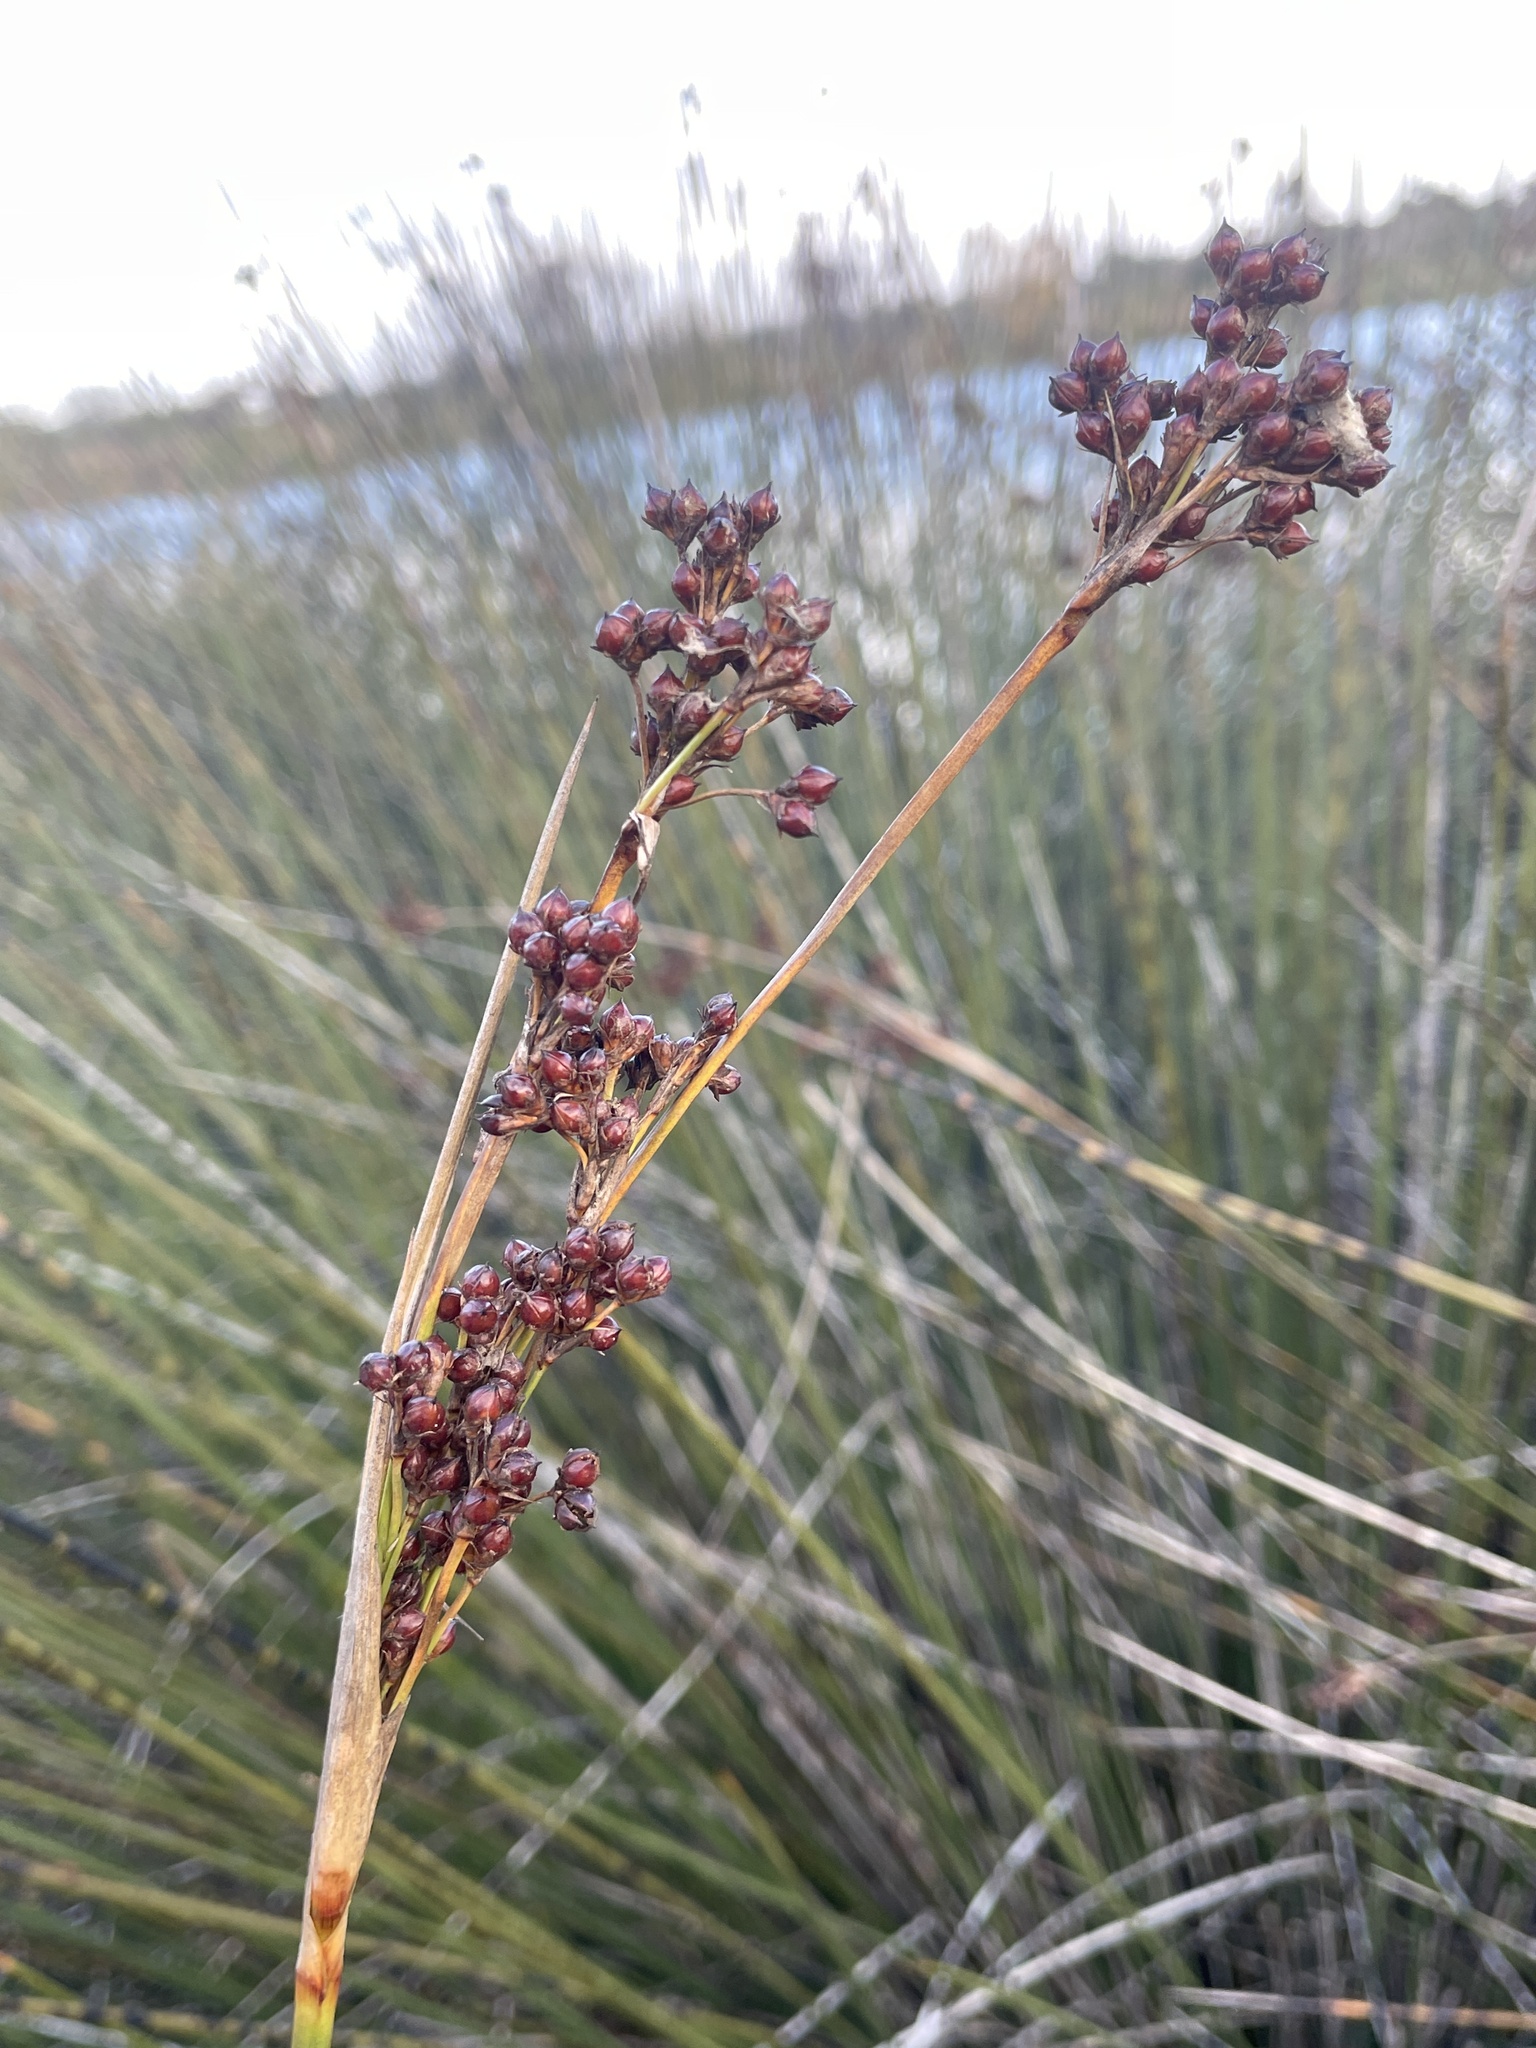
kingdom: Plantae
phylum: Tracheophyta
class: Liliopsida
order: Poales
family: Juncaceae
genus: Juncus
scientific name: Juncus acutus
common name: Sharp rush
